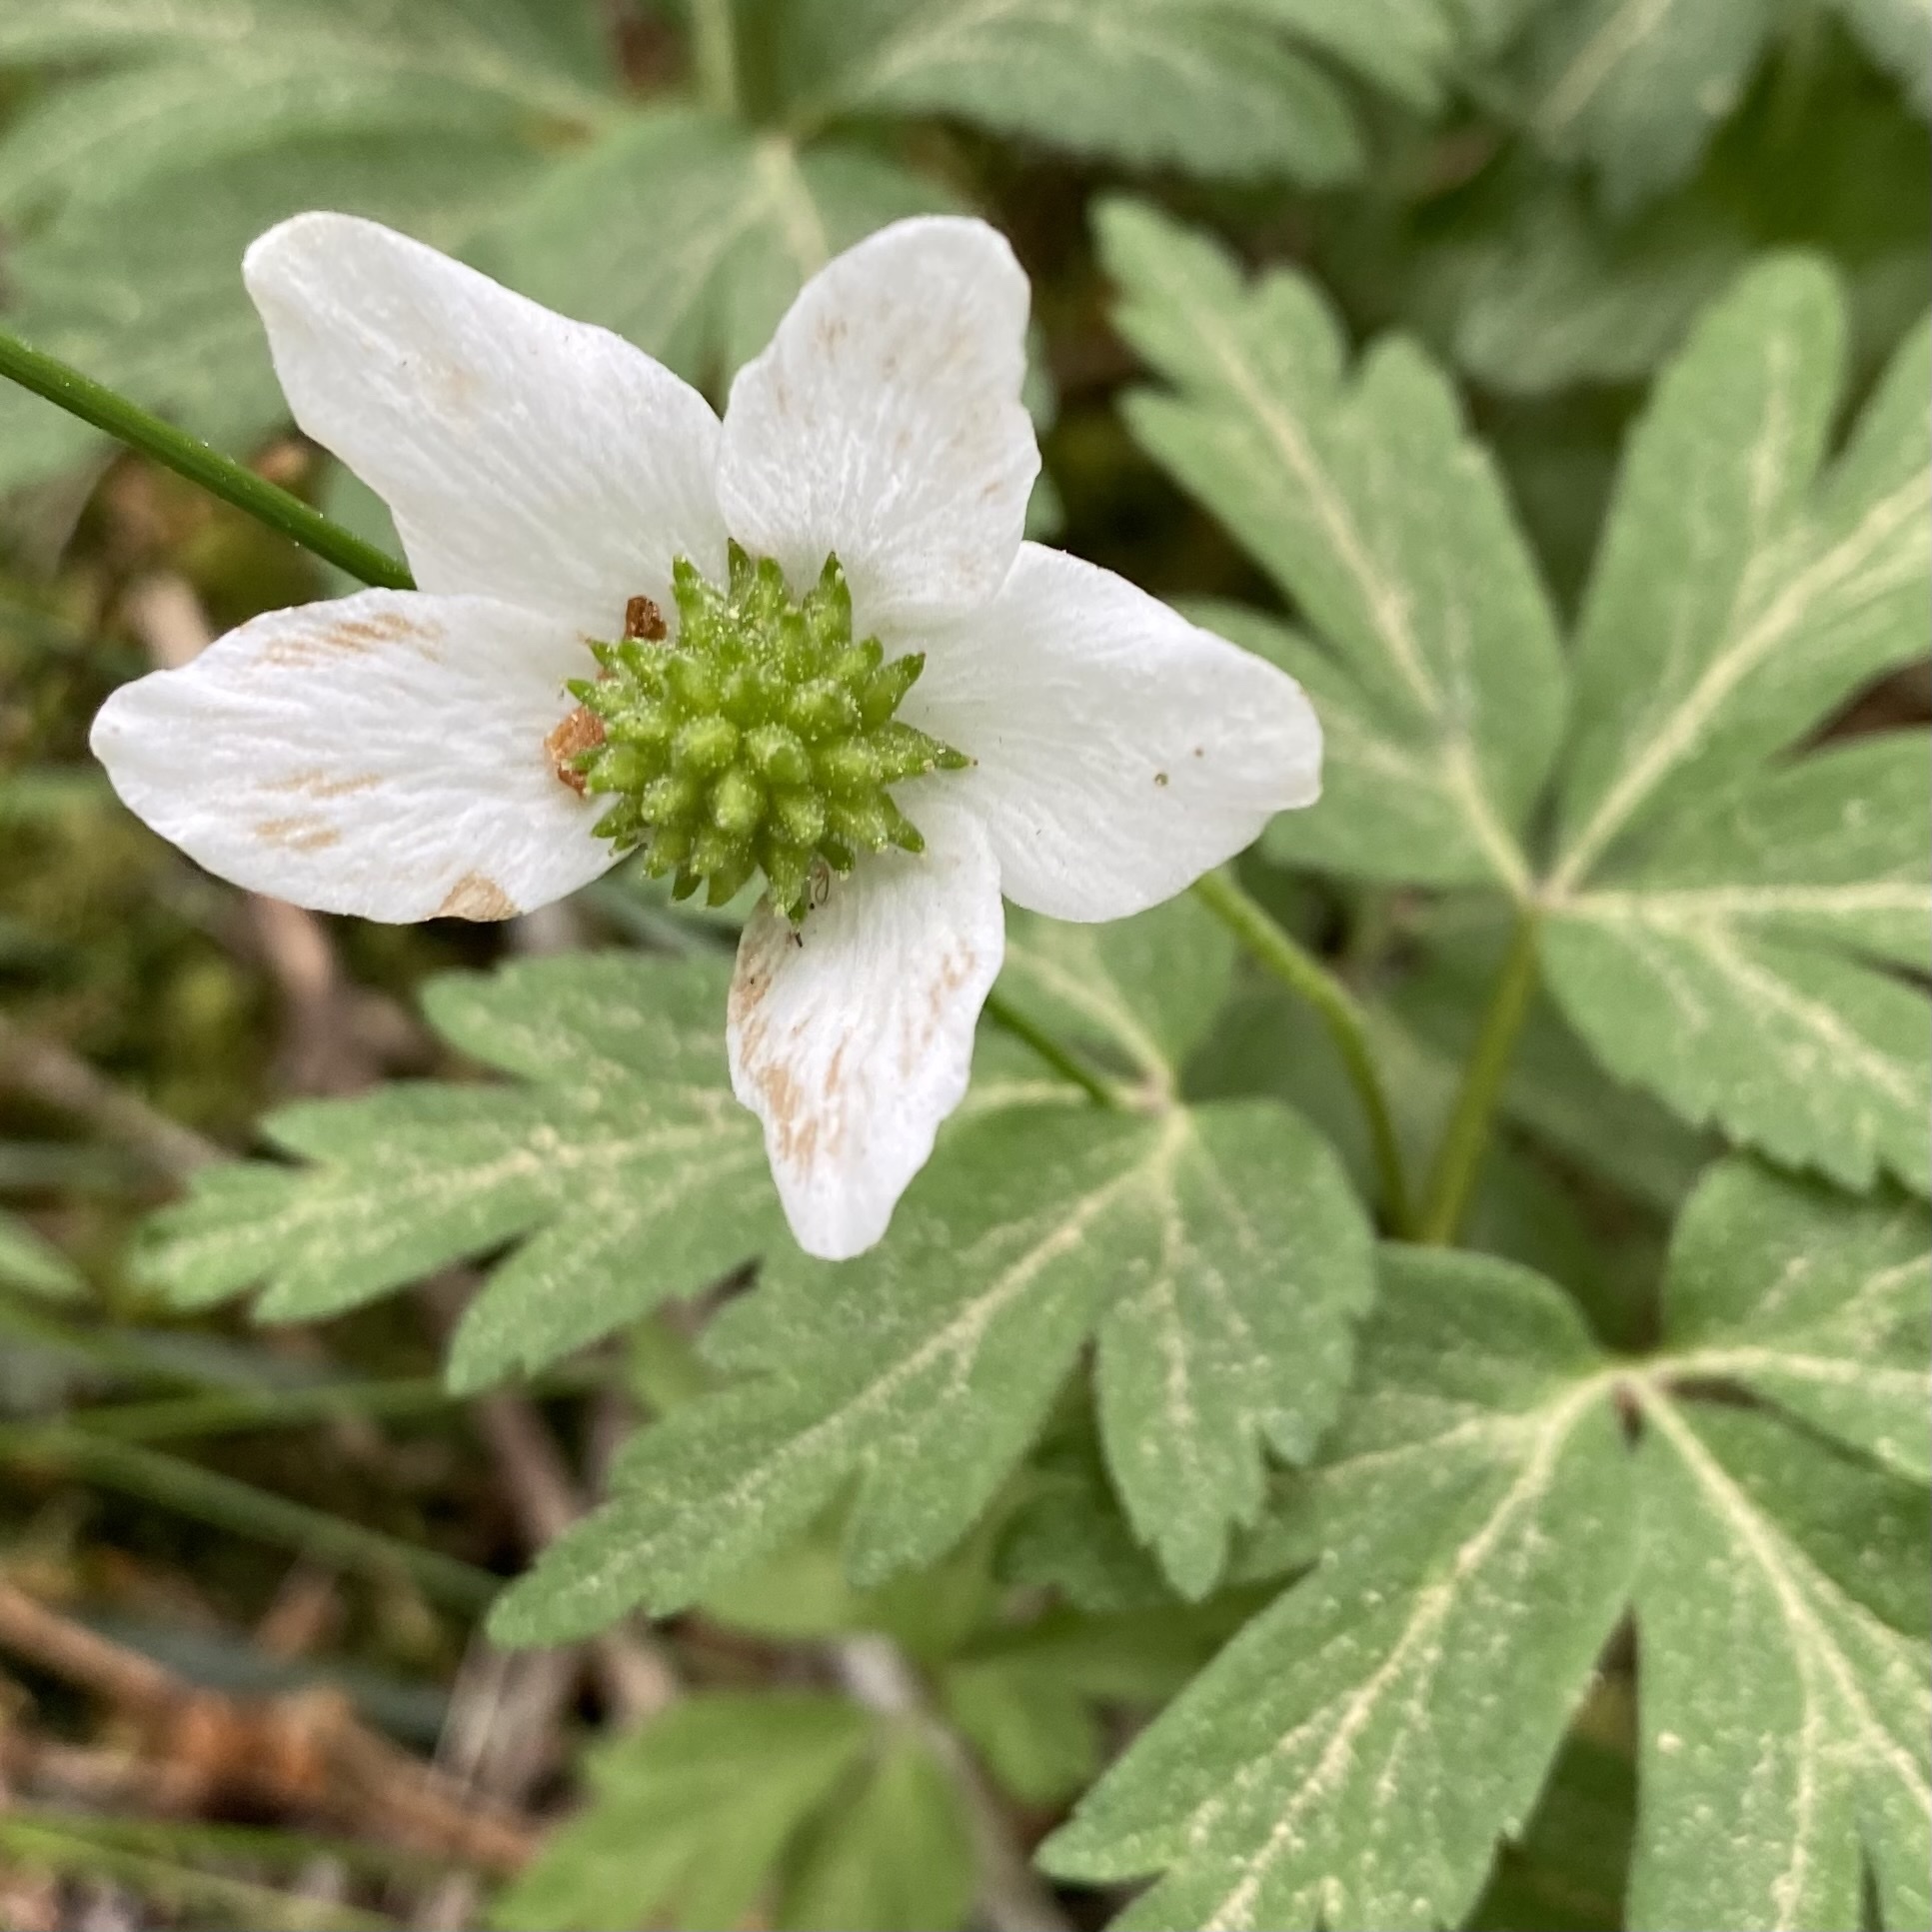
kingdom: Plantae
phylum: Tracheophyta
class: Magnoliopsida
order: Ranunculales
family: Ranunculaceae
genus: Anemone
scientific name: Anemone nemorosa
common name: Wood anemone
